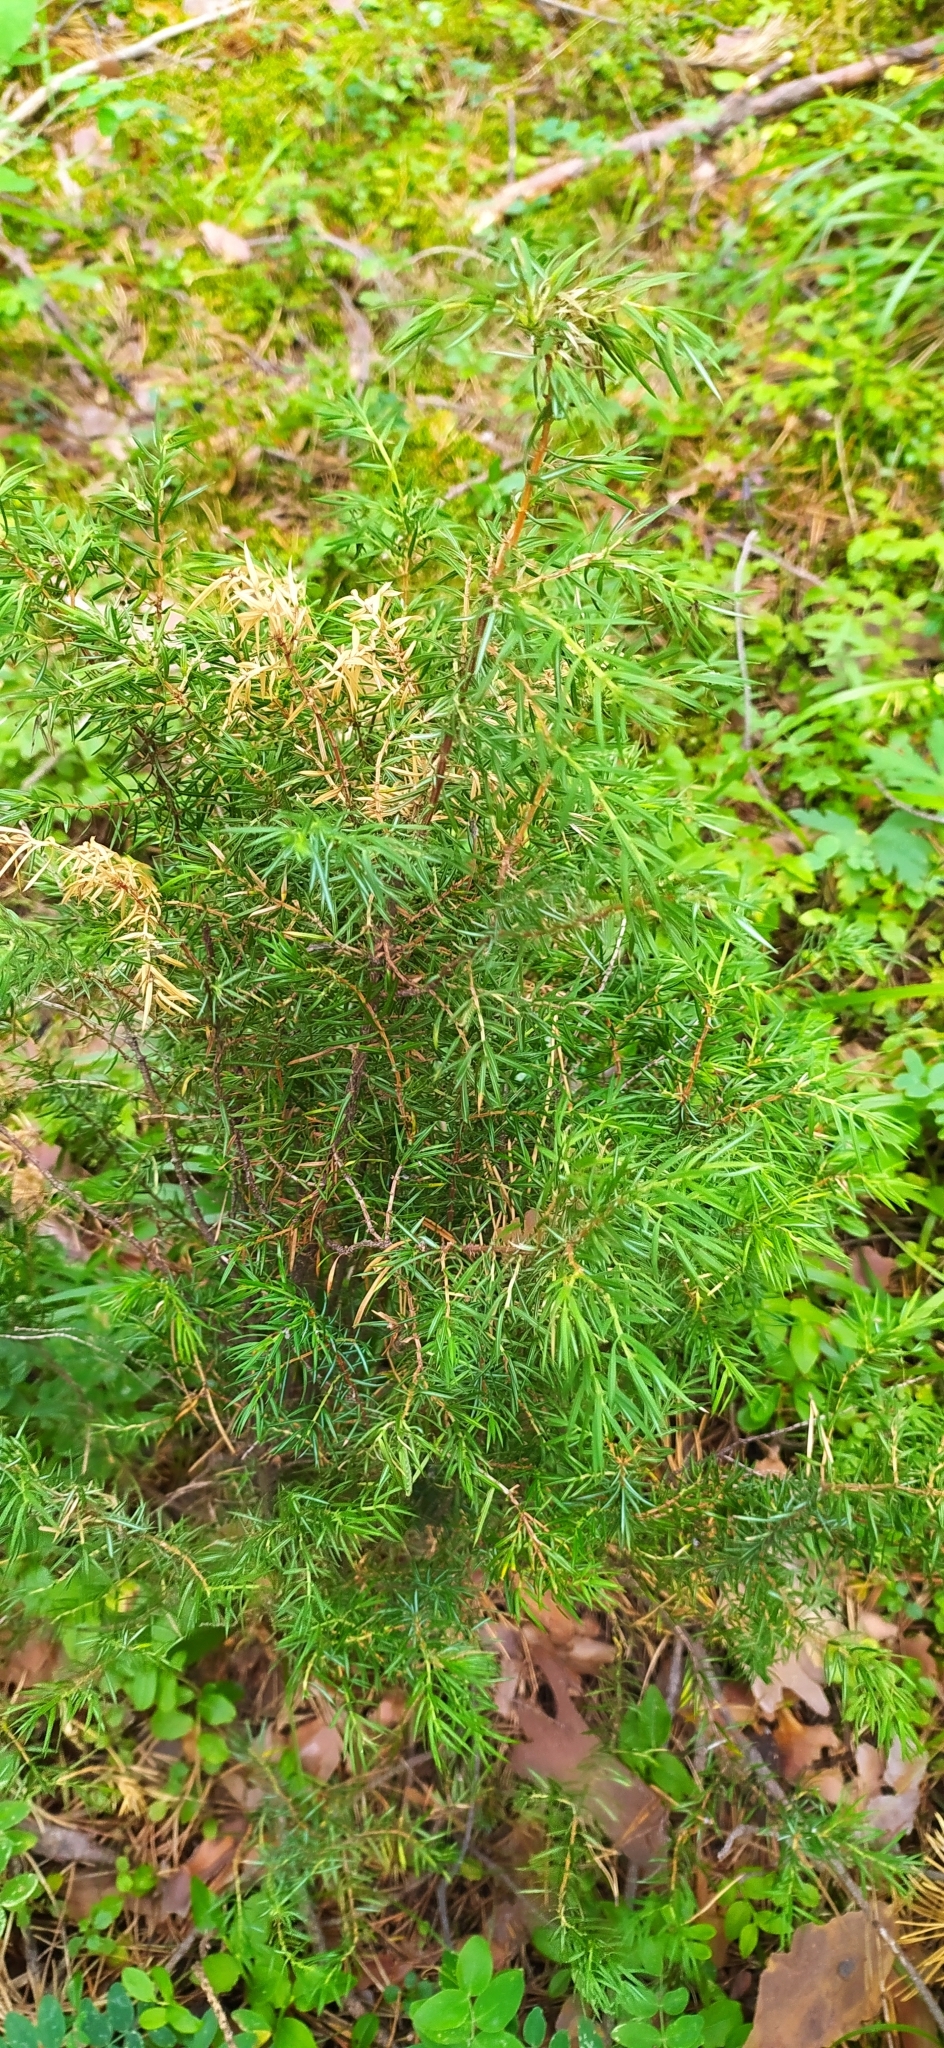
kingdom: Plantae
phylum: Tracheophyta
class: Pinopsida
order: Pinales
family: Cupressaceae
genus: Juniperus
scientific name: Juniperus communis
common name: Common juniper
